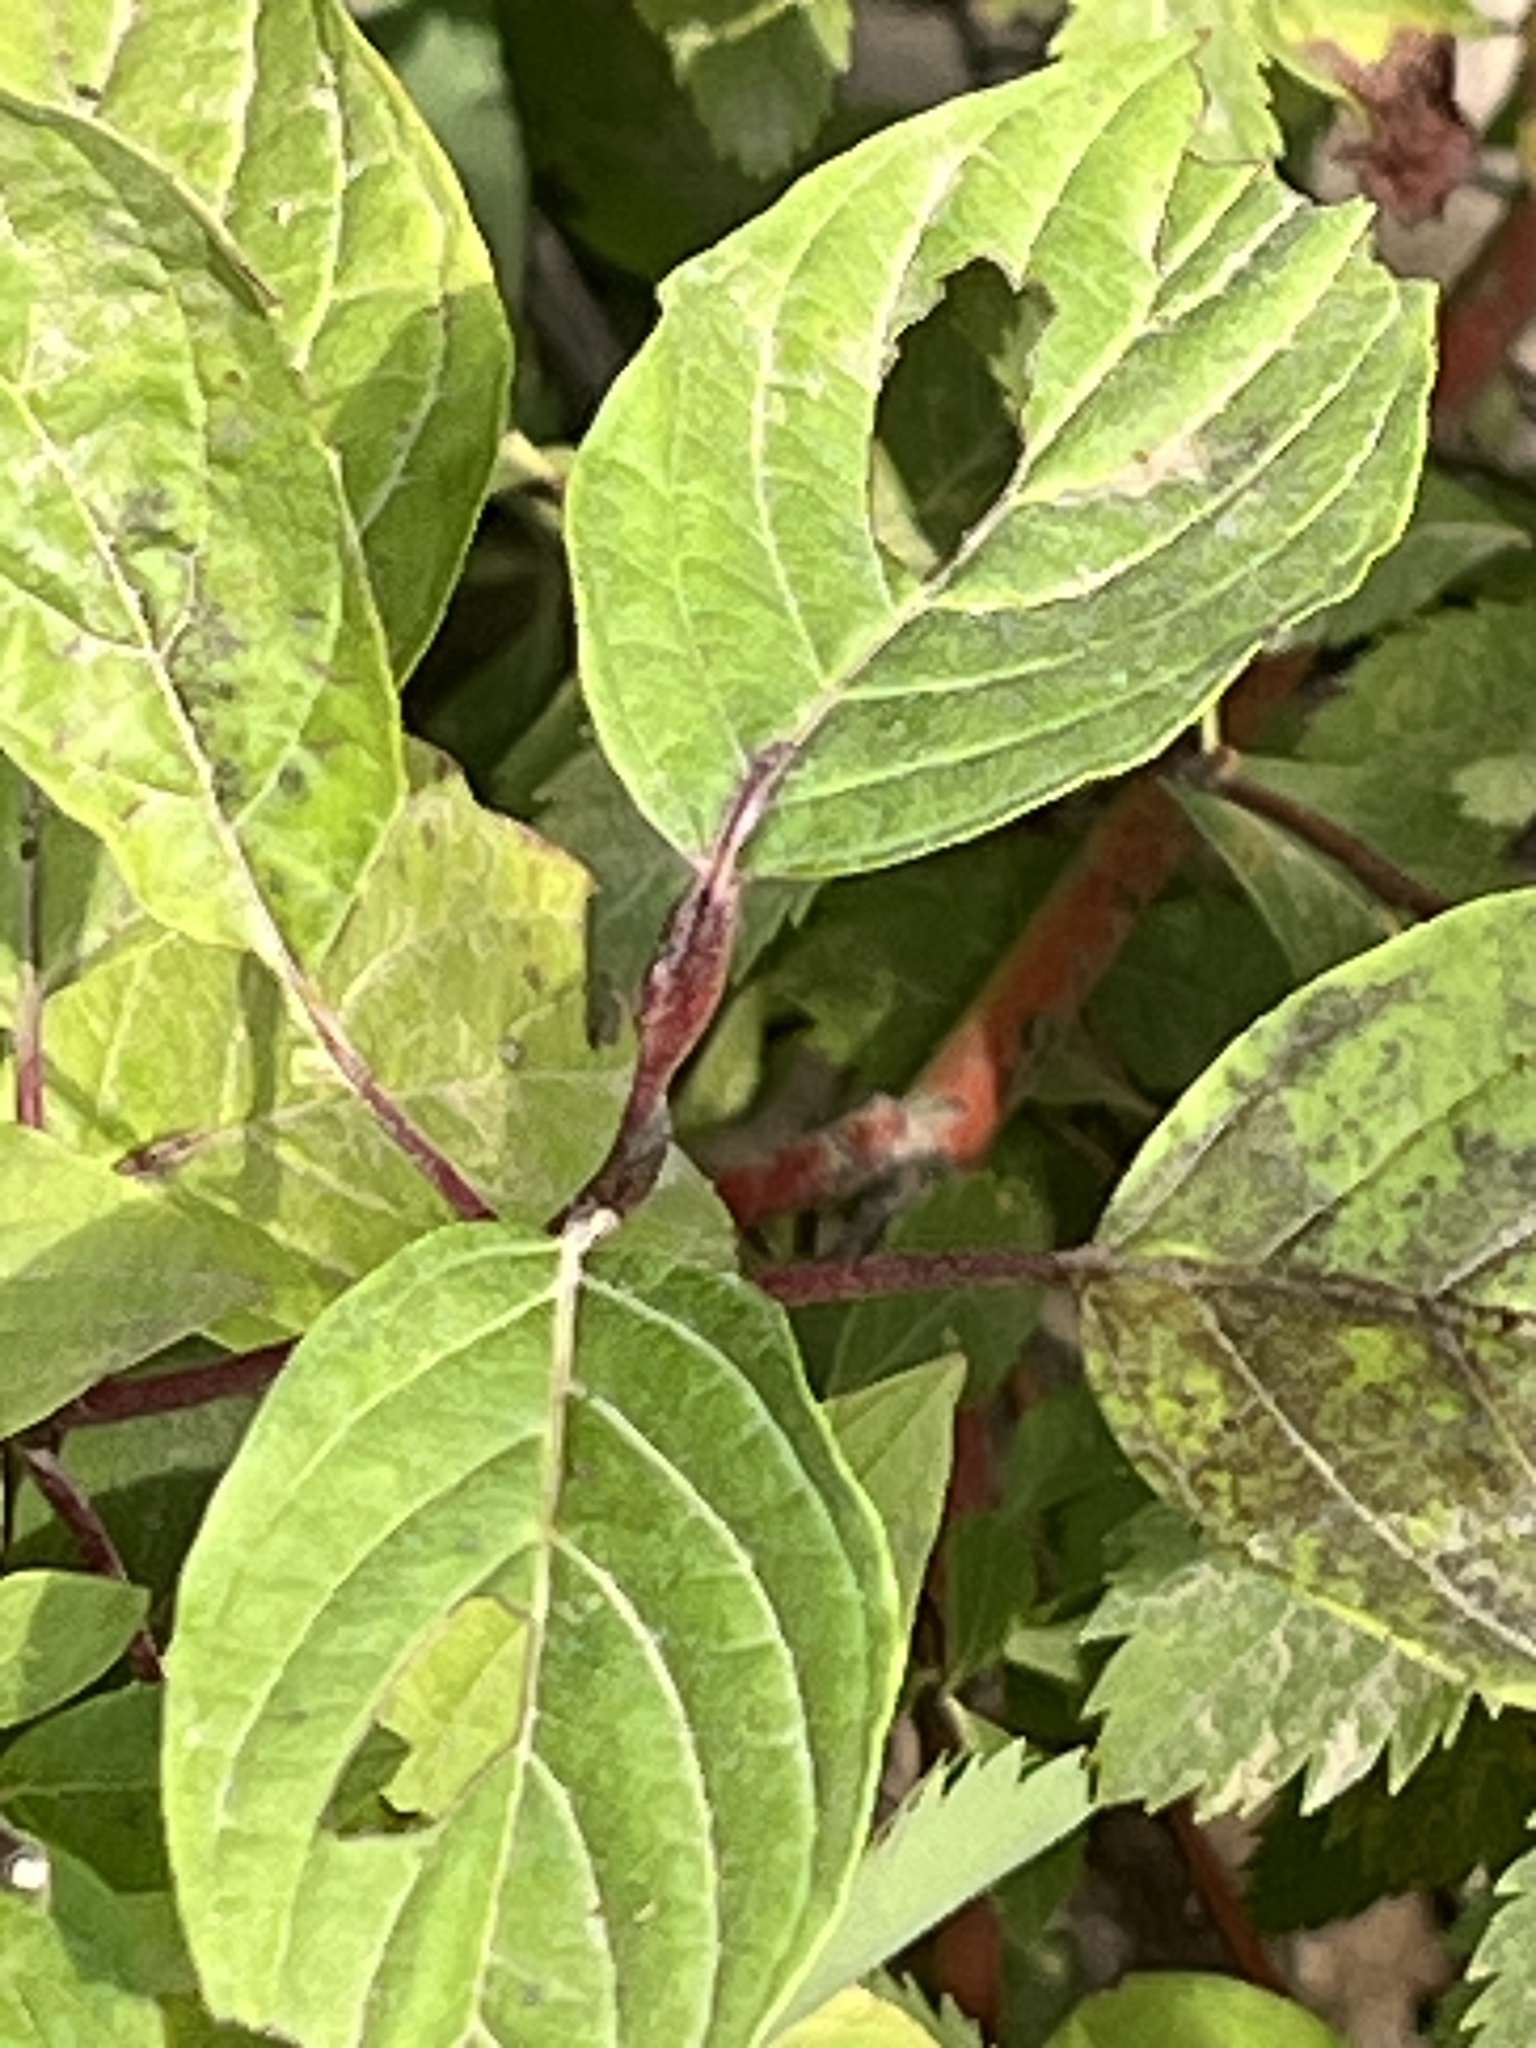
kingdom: Plantae
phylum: Tracheophyta
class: Magnoliopsida
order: Cornales
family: Cornaceae
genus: Cornus
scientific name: Cornus sericea
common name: Red-osier dogwood
